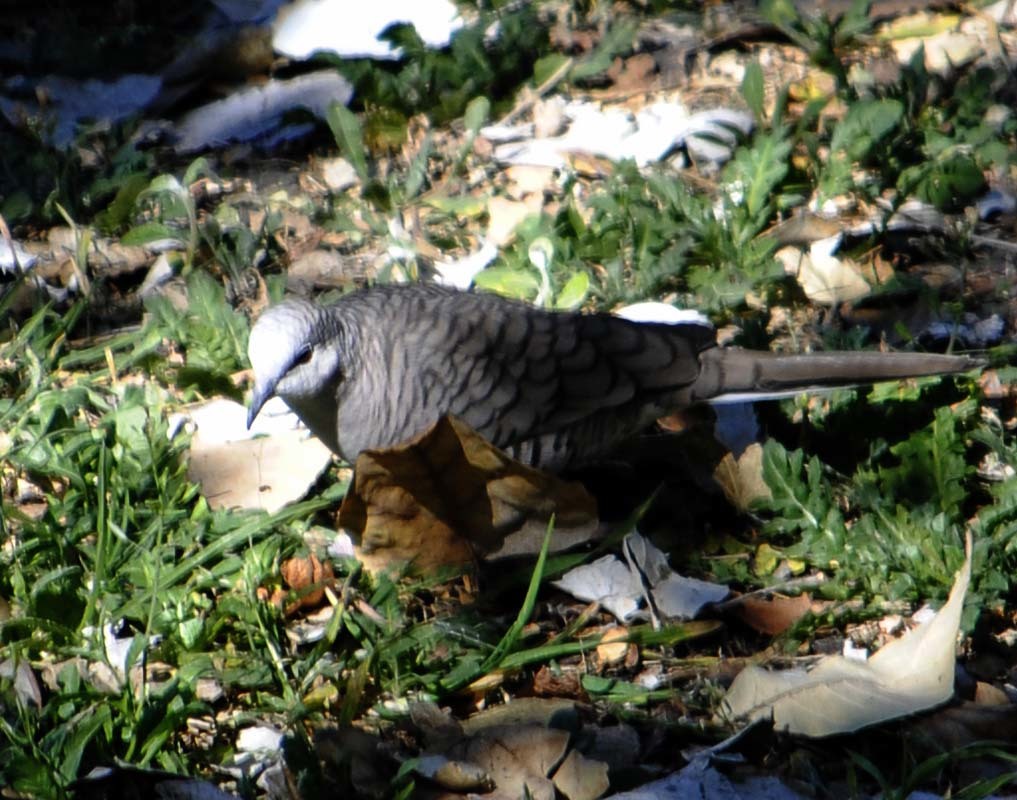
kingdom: Animalia
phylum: Chordata
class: Aves
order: Columbiformes
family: Columbidae
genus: Columbina
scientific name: Columbina inca
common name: Inca dove
